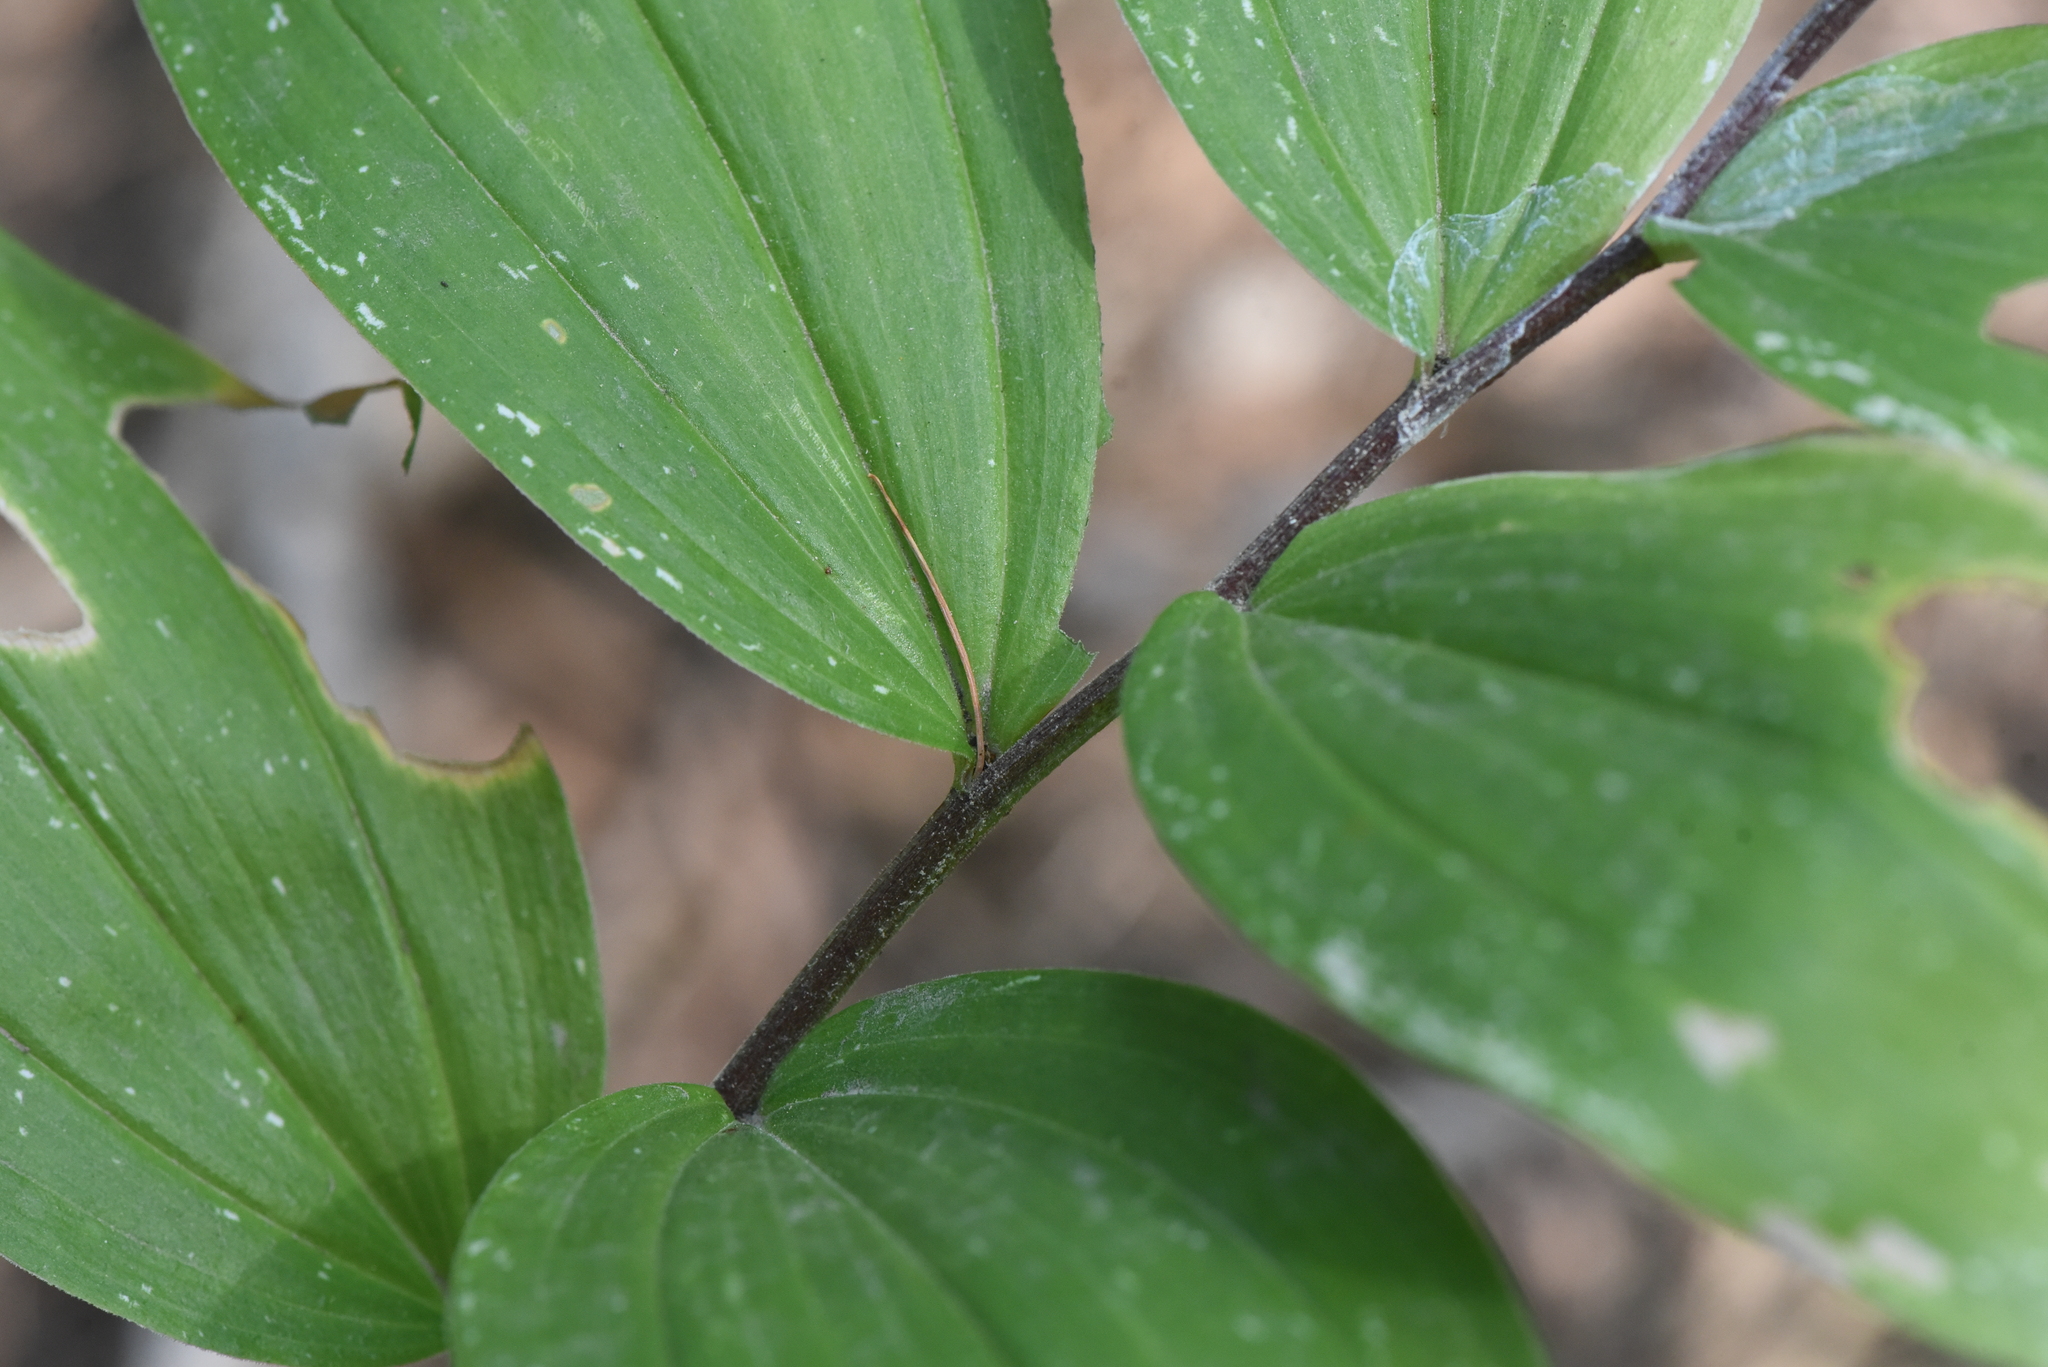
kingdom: Plantae
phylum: Tracheophyta
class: Liliopsida
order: Asparagales
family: Asparagaceae
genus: Maianthemum
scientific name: Maianthemum racemosum
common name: False spikenard
